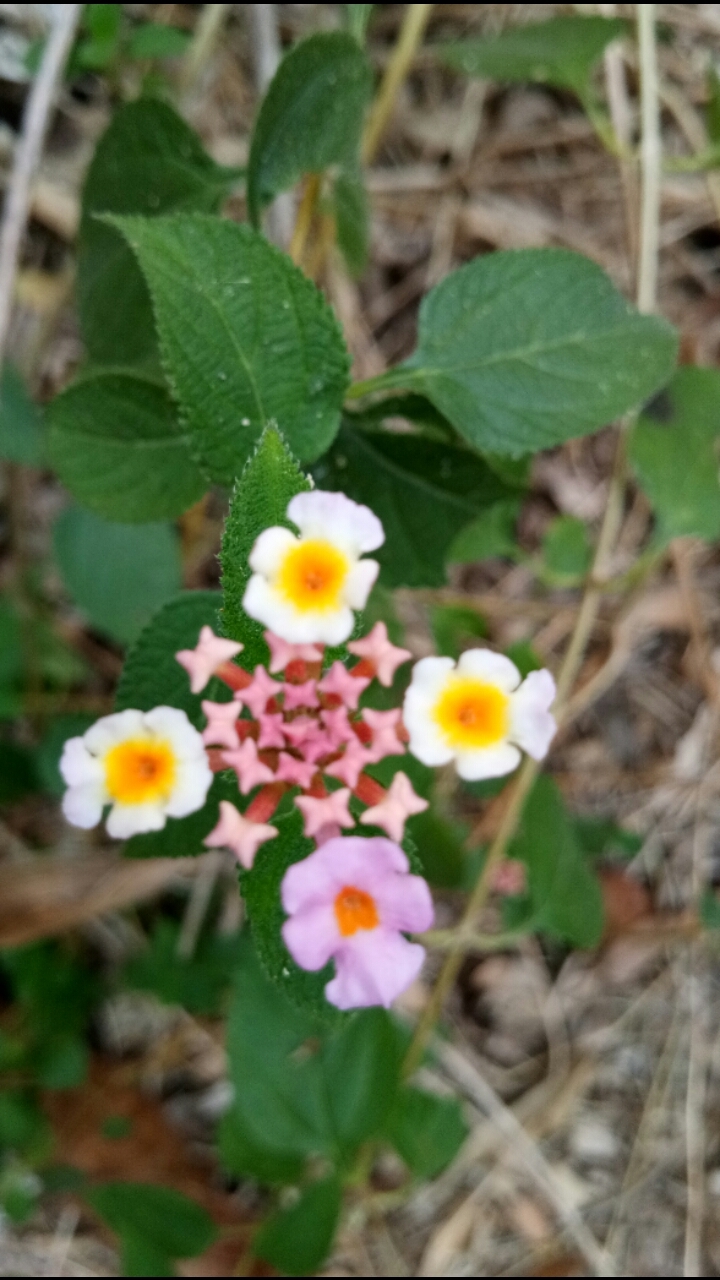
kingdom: Plantae
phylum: Tracheophyta
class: Magnoliopsida
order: Lamiales
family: Verbenaceae
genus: Lantana
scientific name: Lantana camara
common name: Lantana
